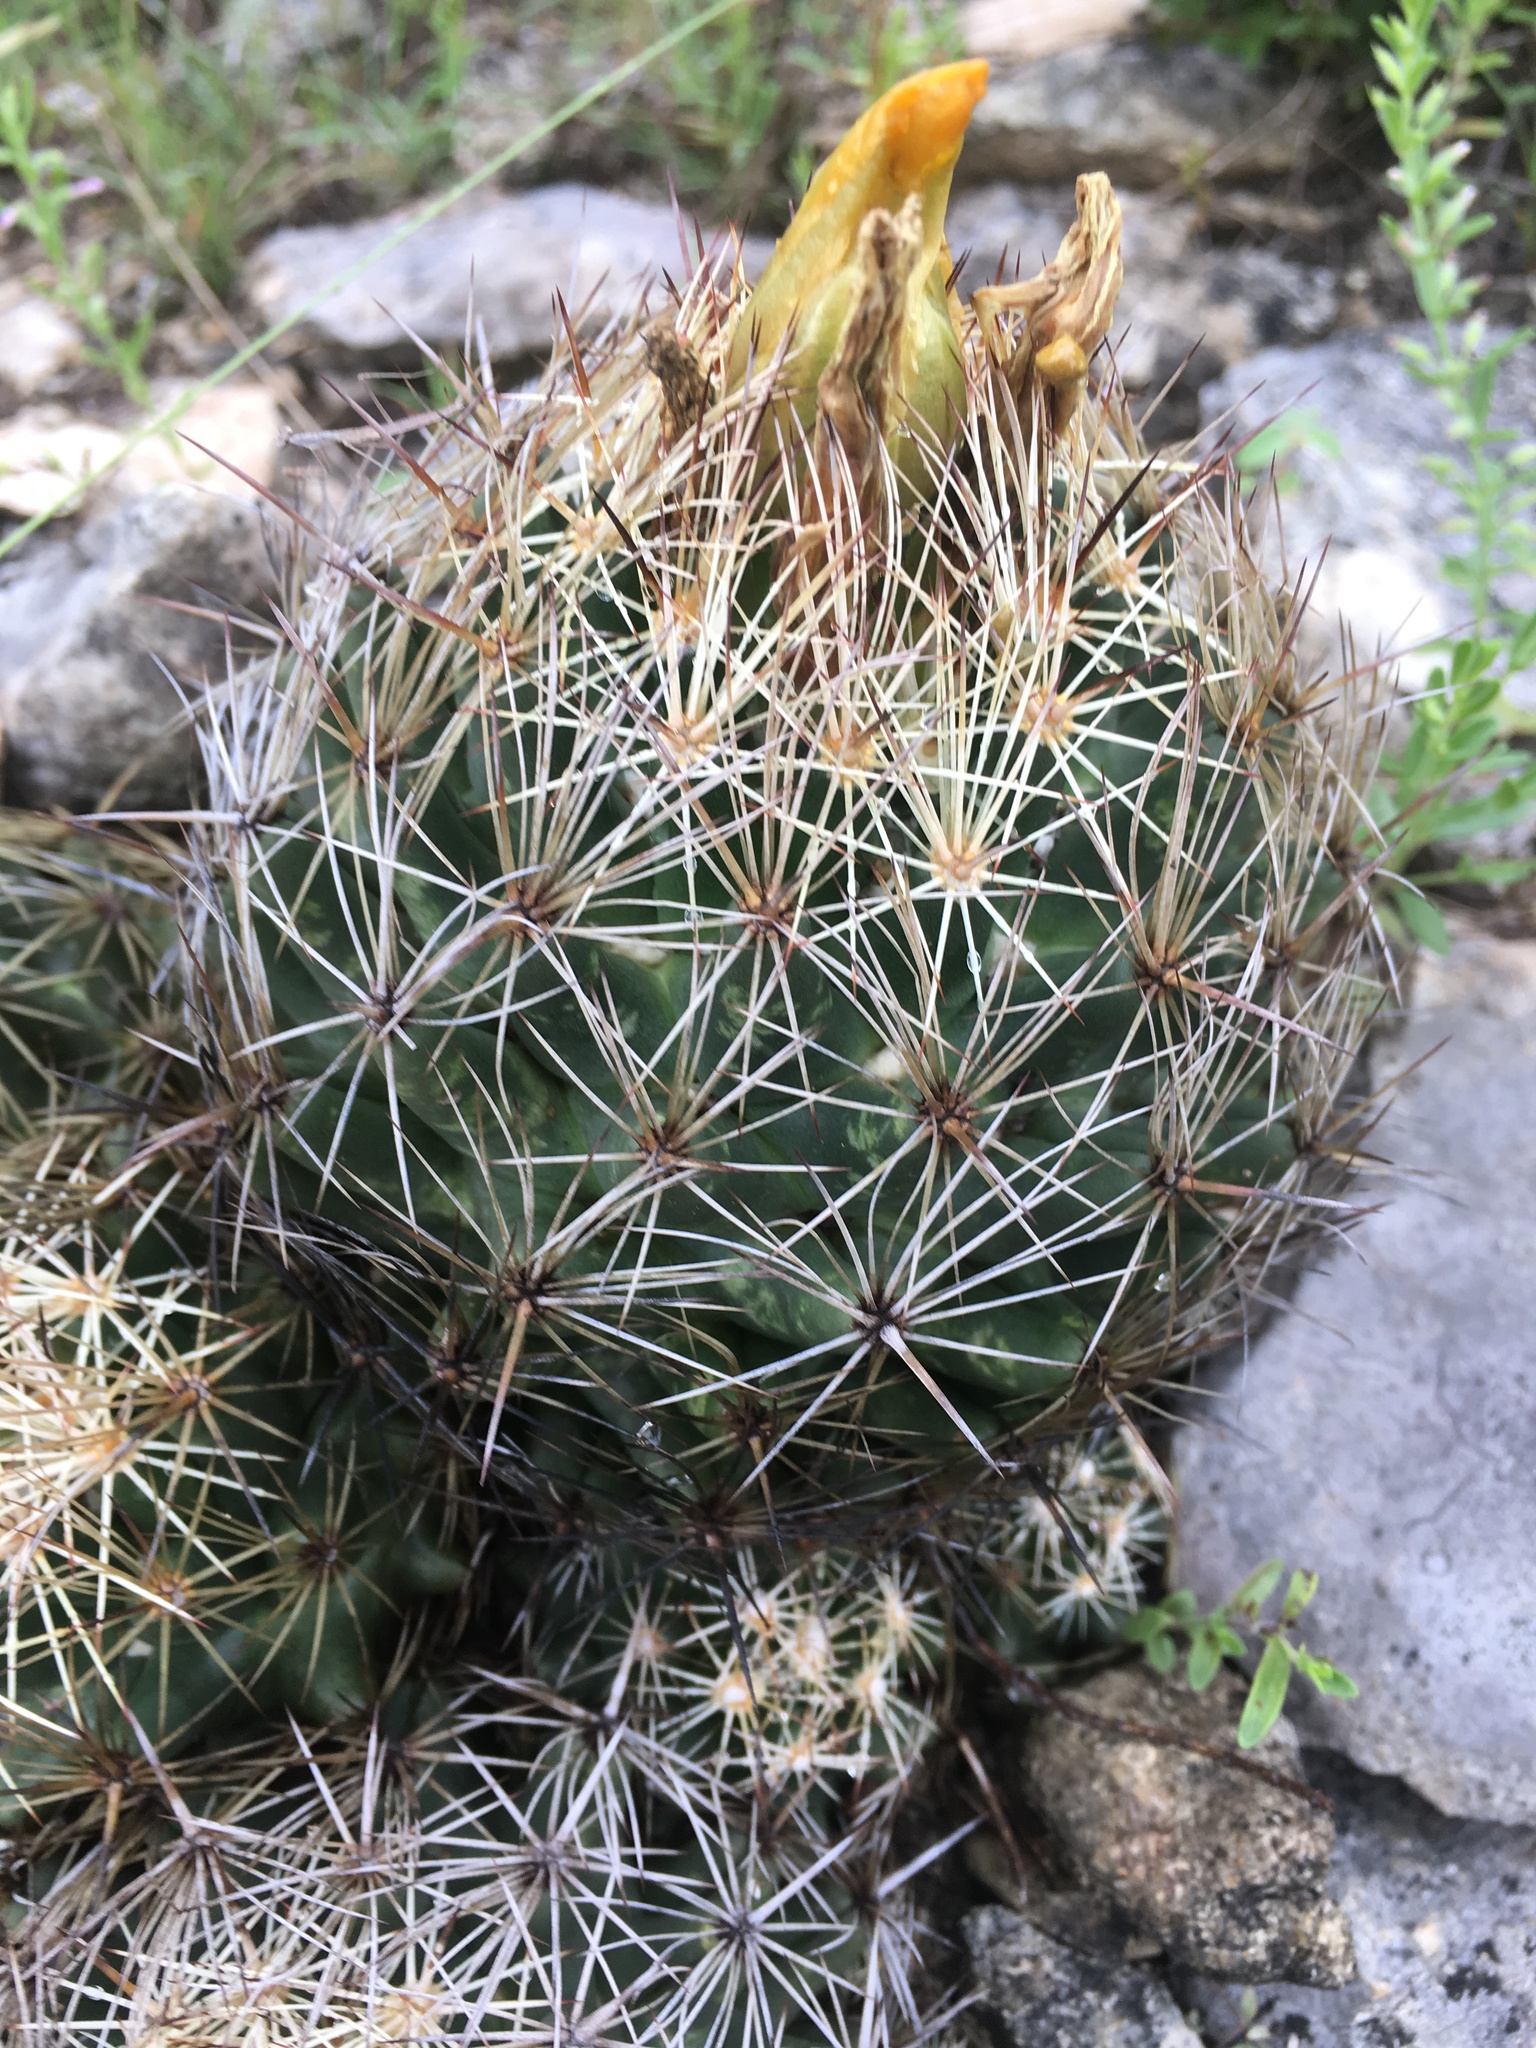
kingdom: Plantae
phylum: Tracheophyta
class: Magnoliopsida
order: Caryophyllales
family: Cactaceae
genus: Coryphantha
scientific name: Coryphantha sulcata
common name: Finger cactus
